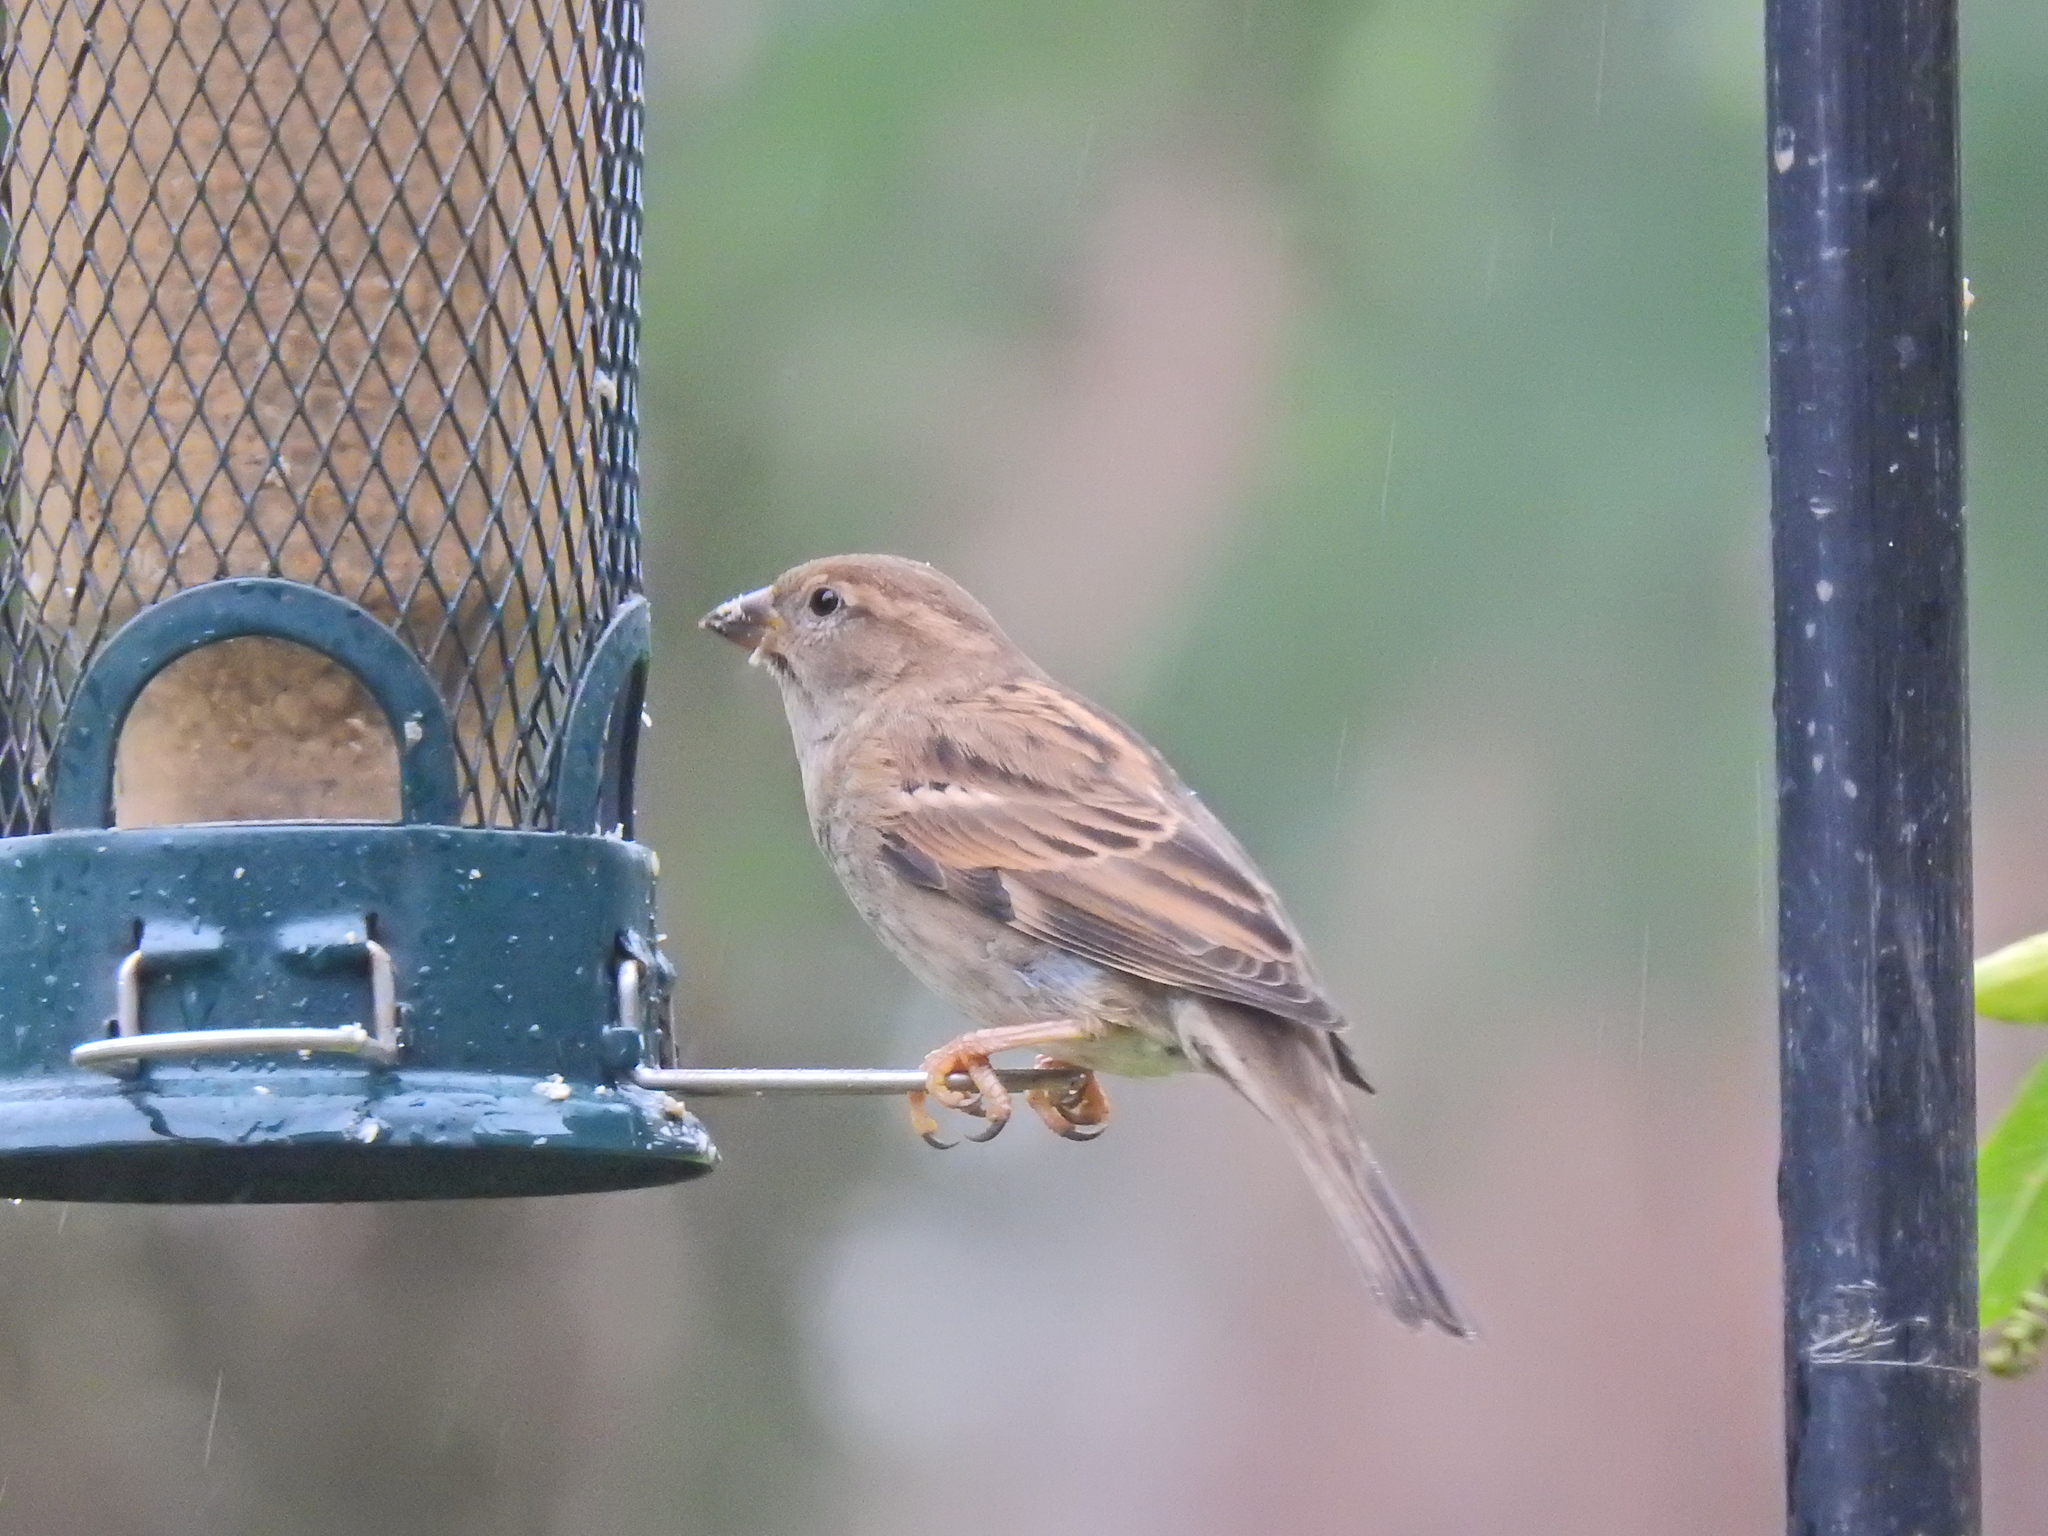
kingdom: Animalia
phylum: Chordata
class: Aves
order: Passeriformes
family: Passeridae
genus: Passer
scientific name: Passer domesticus
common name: House sparrow
